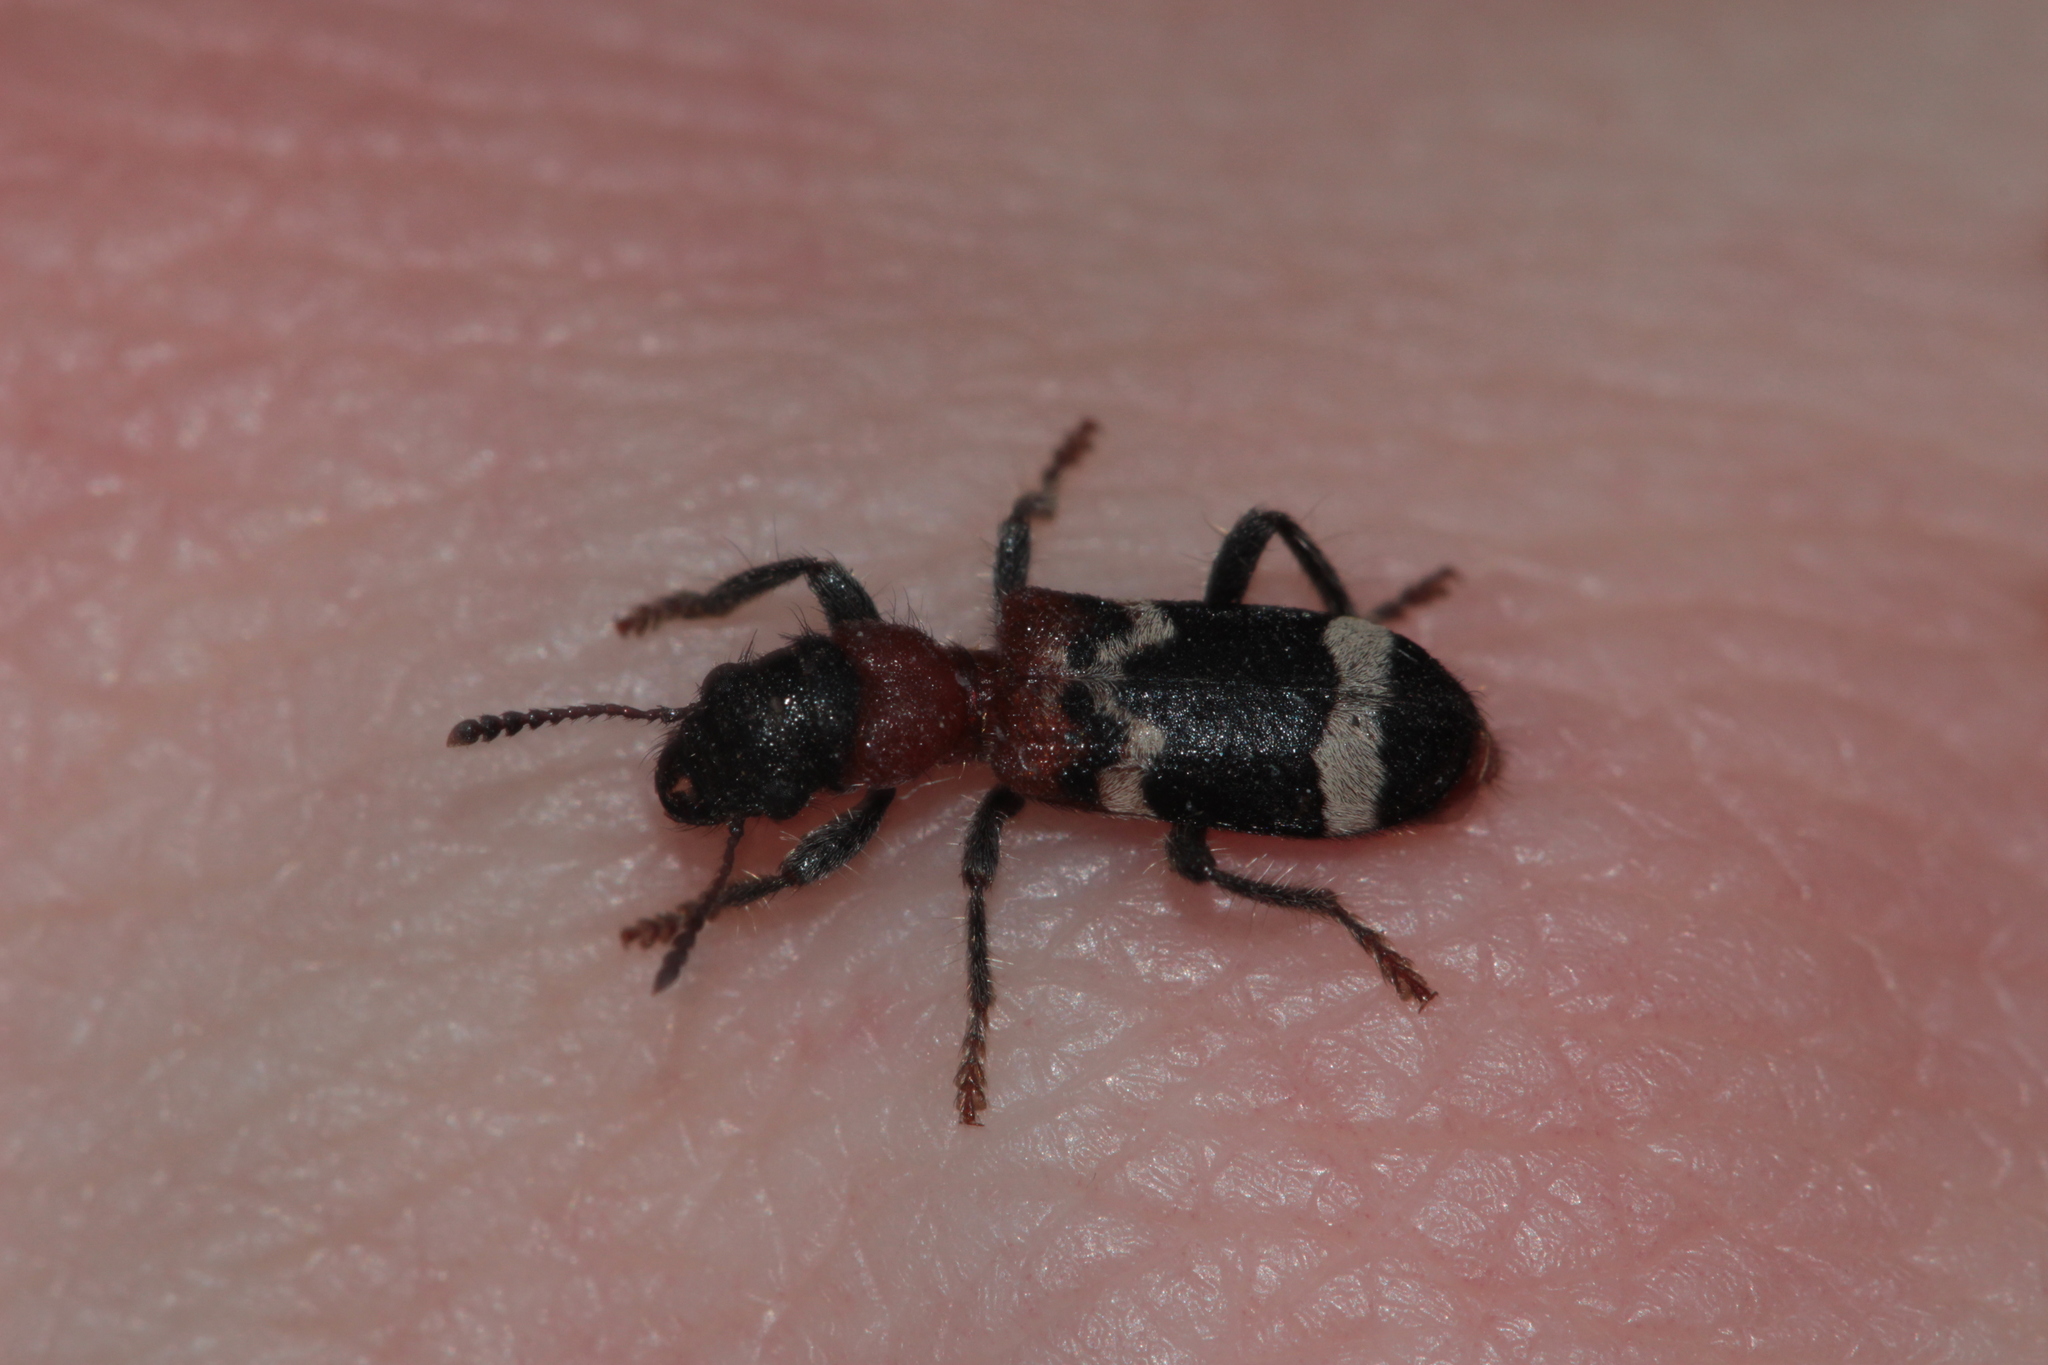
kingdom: Animalia
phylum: Arthropoda
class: Insecta
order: Coleoptera
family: Cleridae
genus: Thanasimus
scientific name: Thanasimus formicarius
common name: Ant beetle
